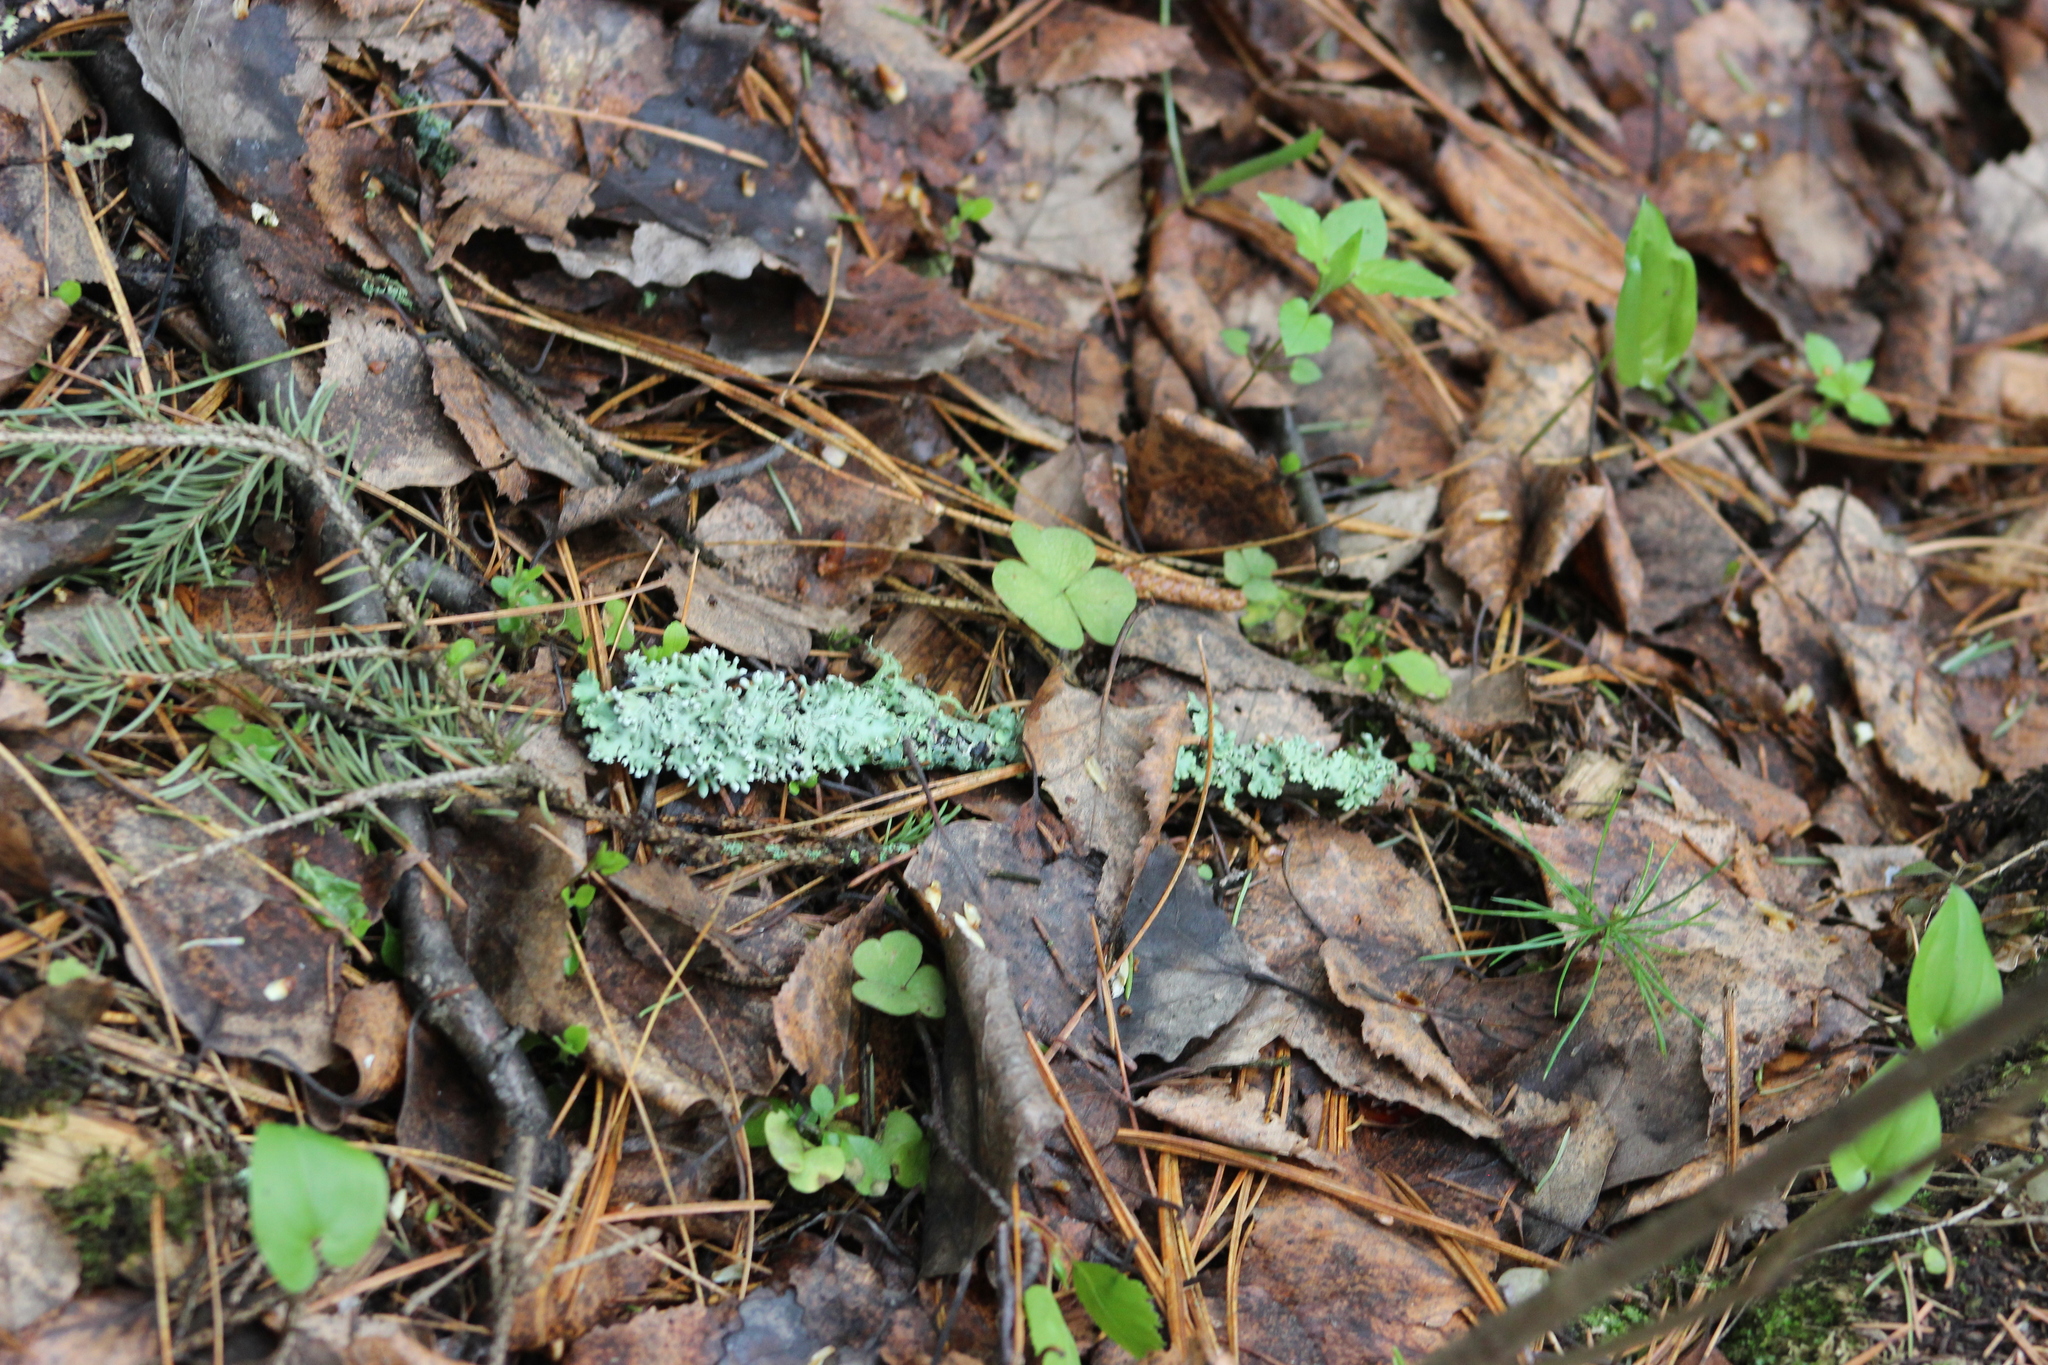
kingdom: Fungi
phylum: Ascomycota
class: Lecanoromycetes
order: Lecanorales
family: Parmeliaceae
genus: Hypogymnia
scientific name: Hypogymnia physodes
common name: Dark crottle
